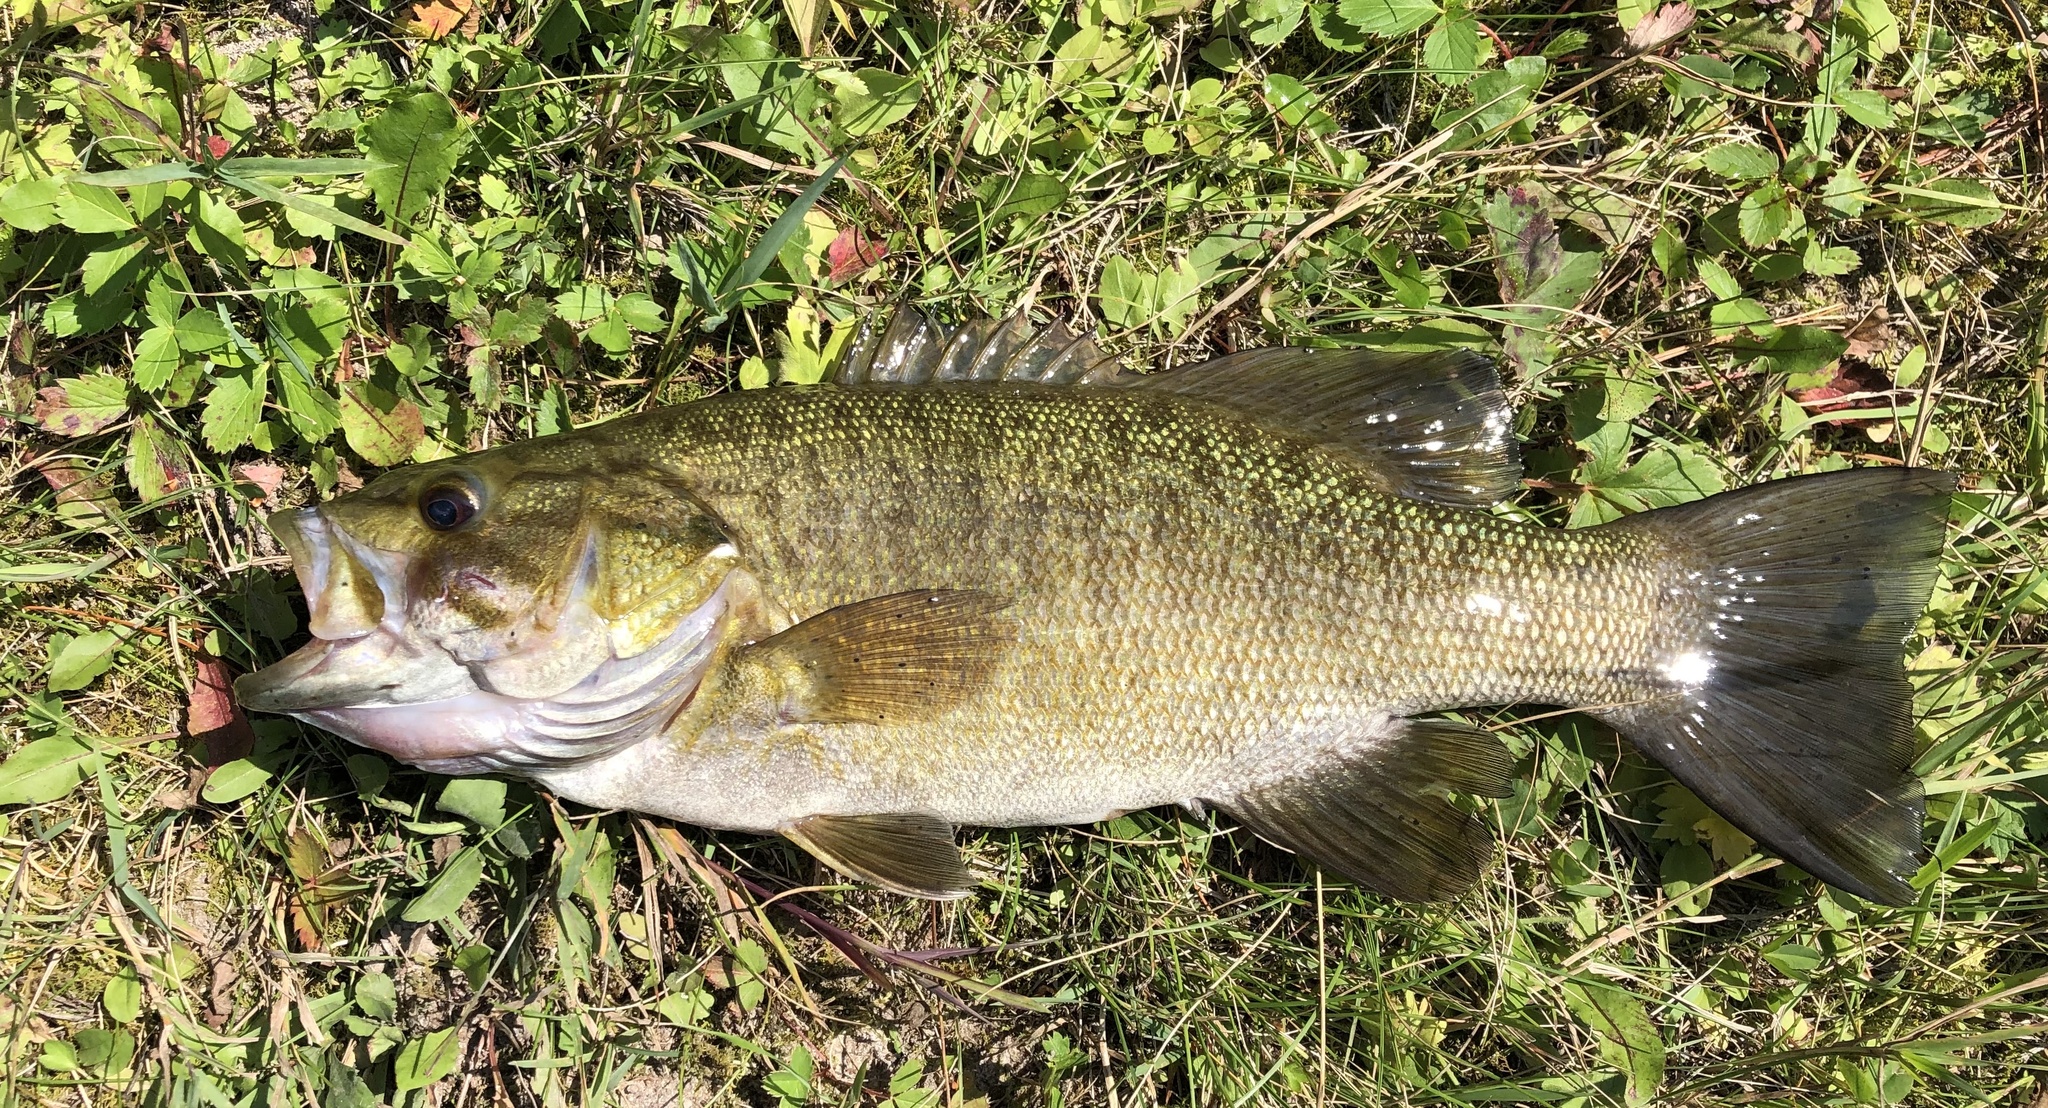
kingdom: Animalia
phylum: Chordata
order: Perciformes
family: Centrarchidae
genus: Micropterus
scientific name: Micropterus dolomieu
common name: Smallmouth bass
